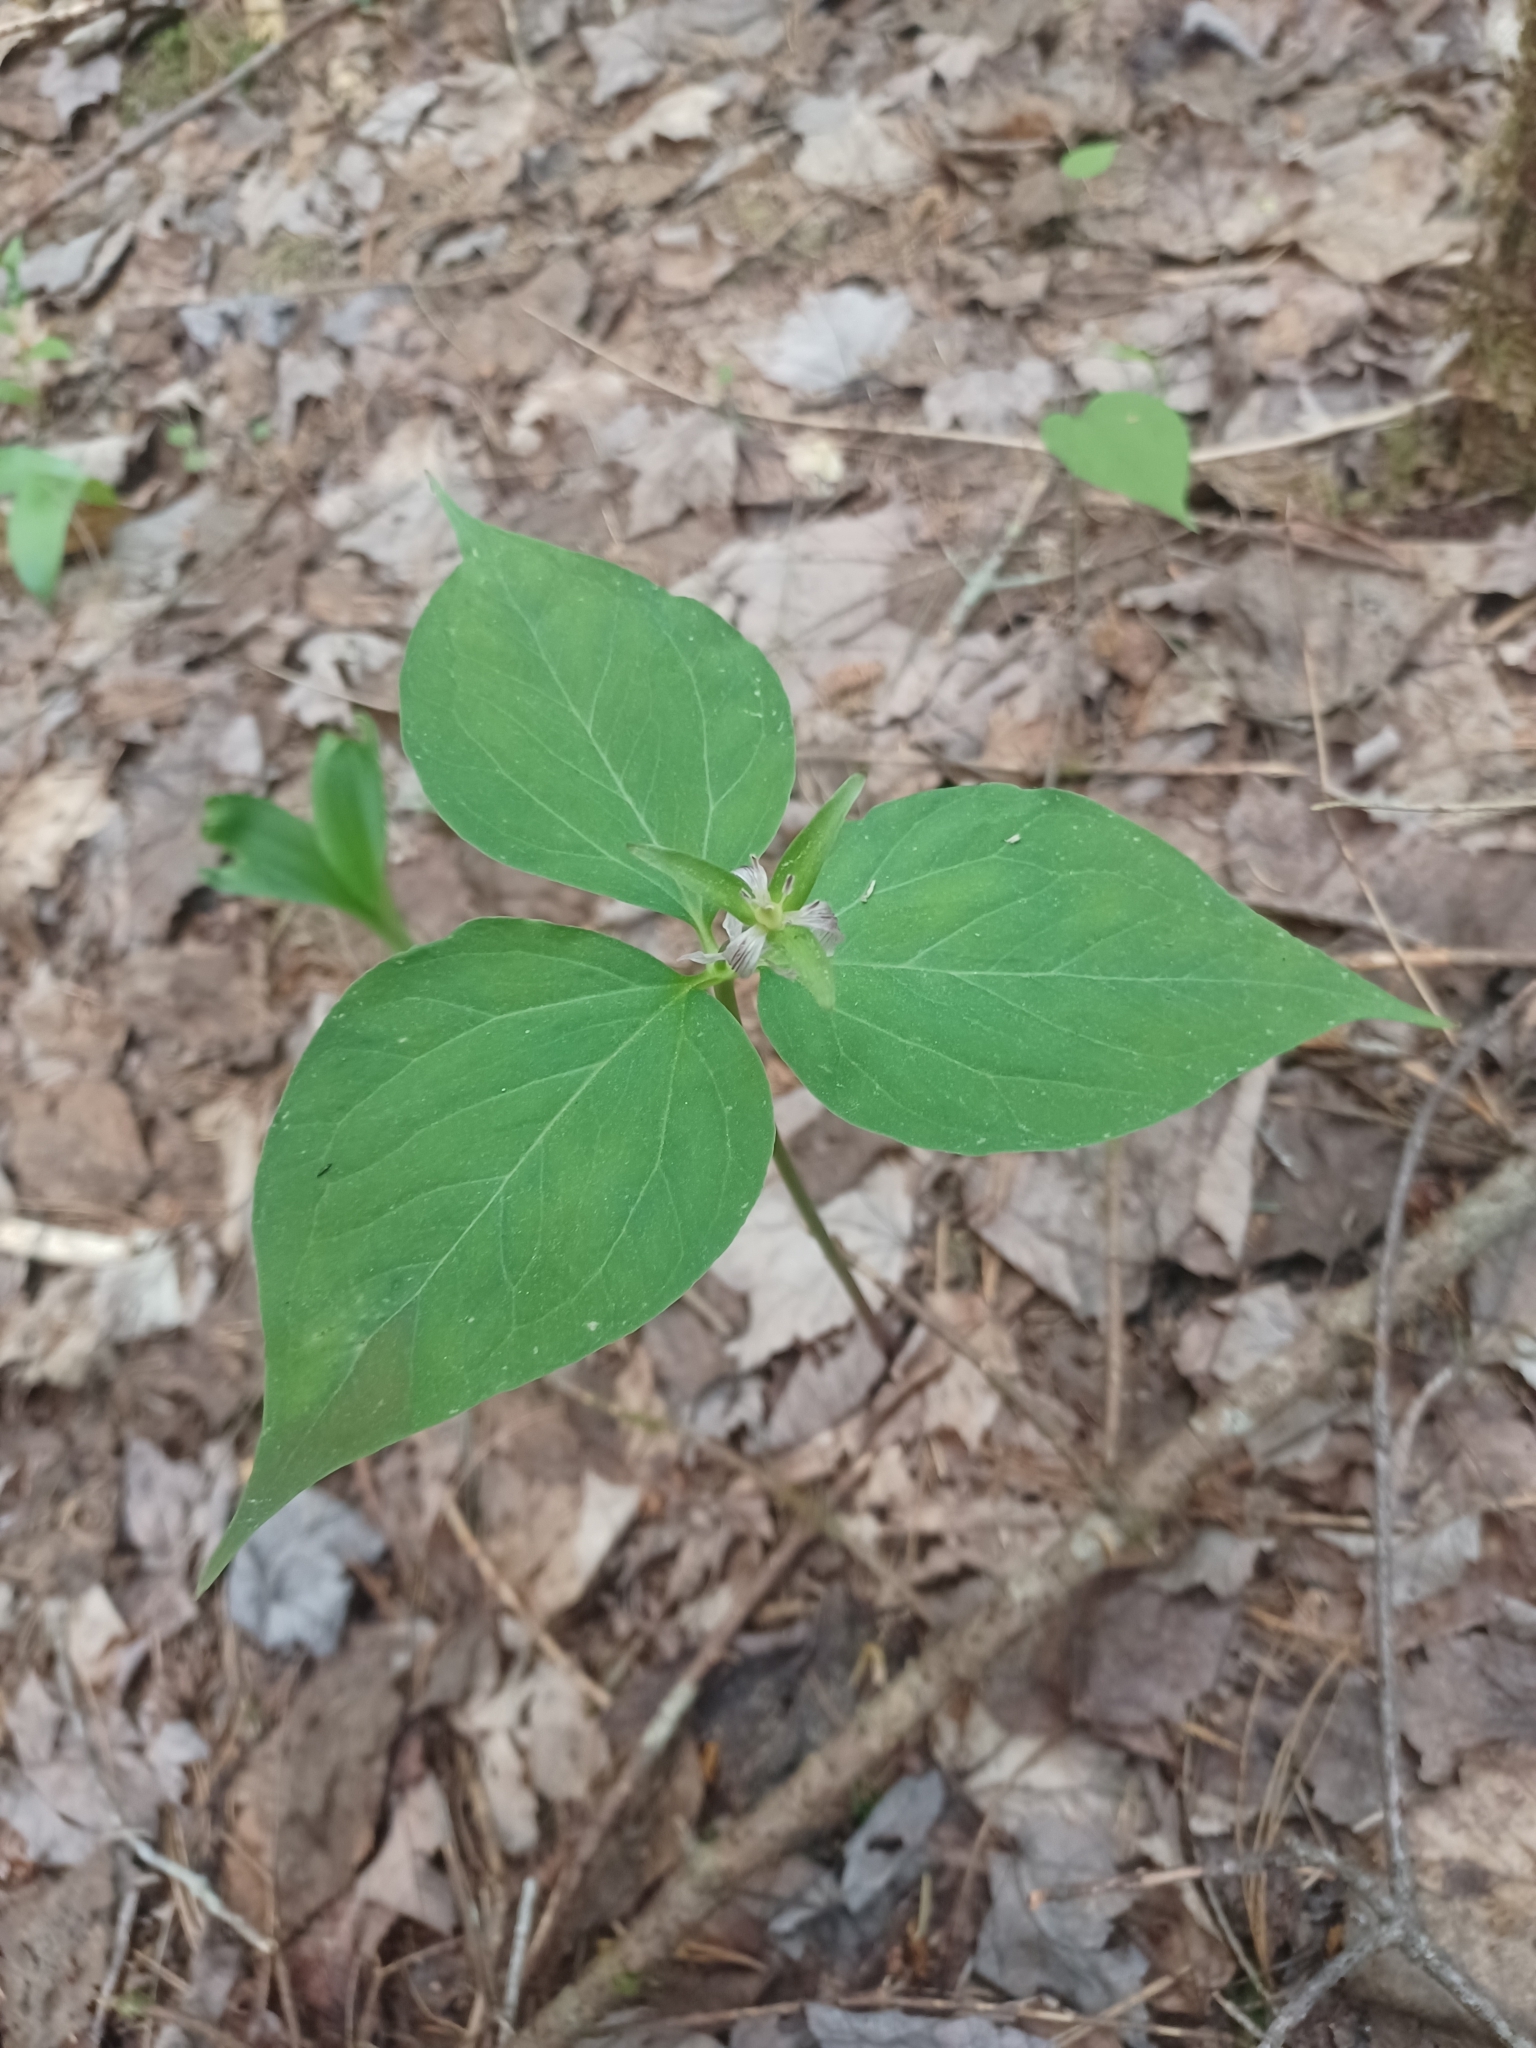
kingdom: Plantae
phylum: Tracheophyta
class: Liliopsida
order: Liliales
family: Melanthiaceae
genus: Trillium
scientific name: Trillium undulatum
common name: Paint trillium
